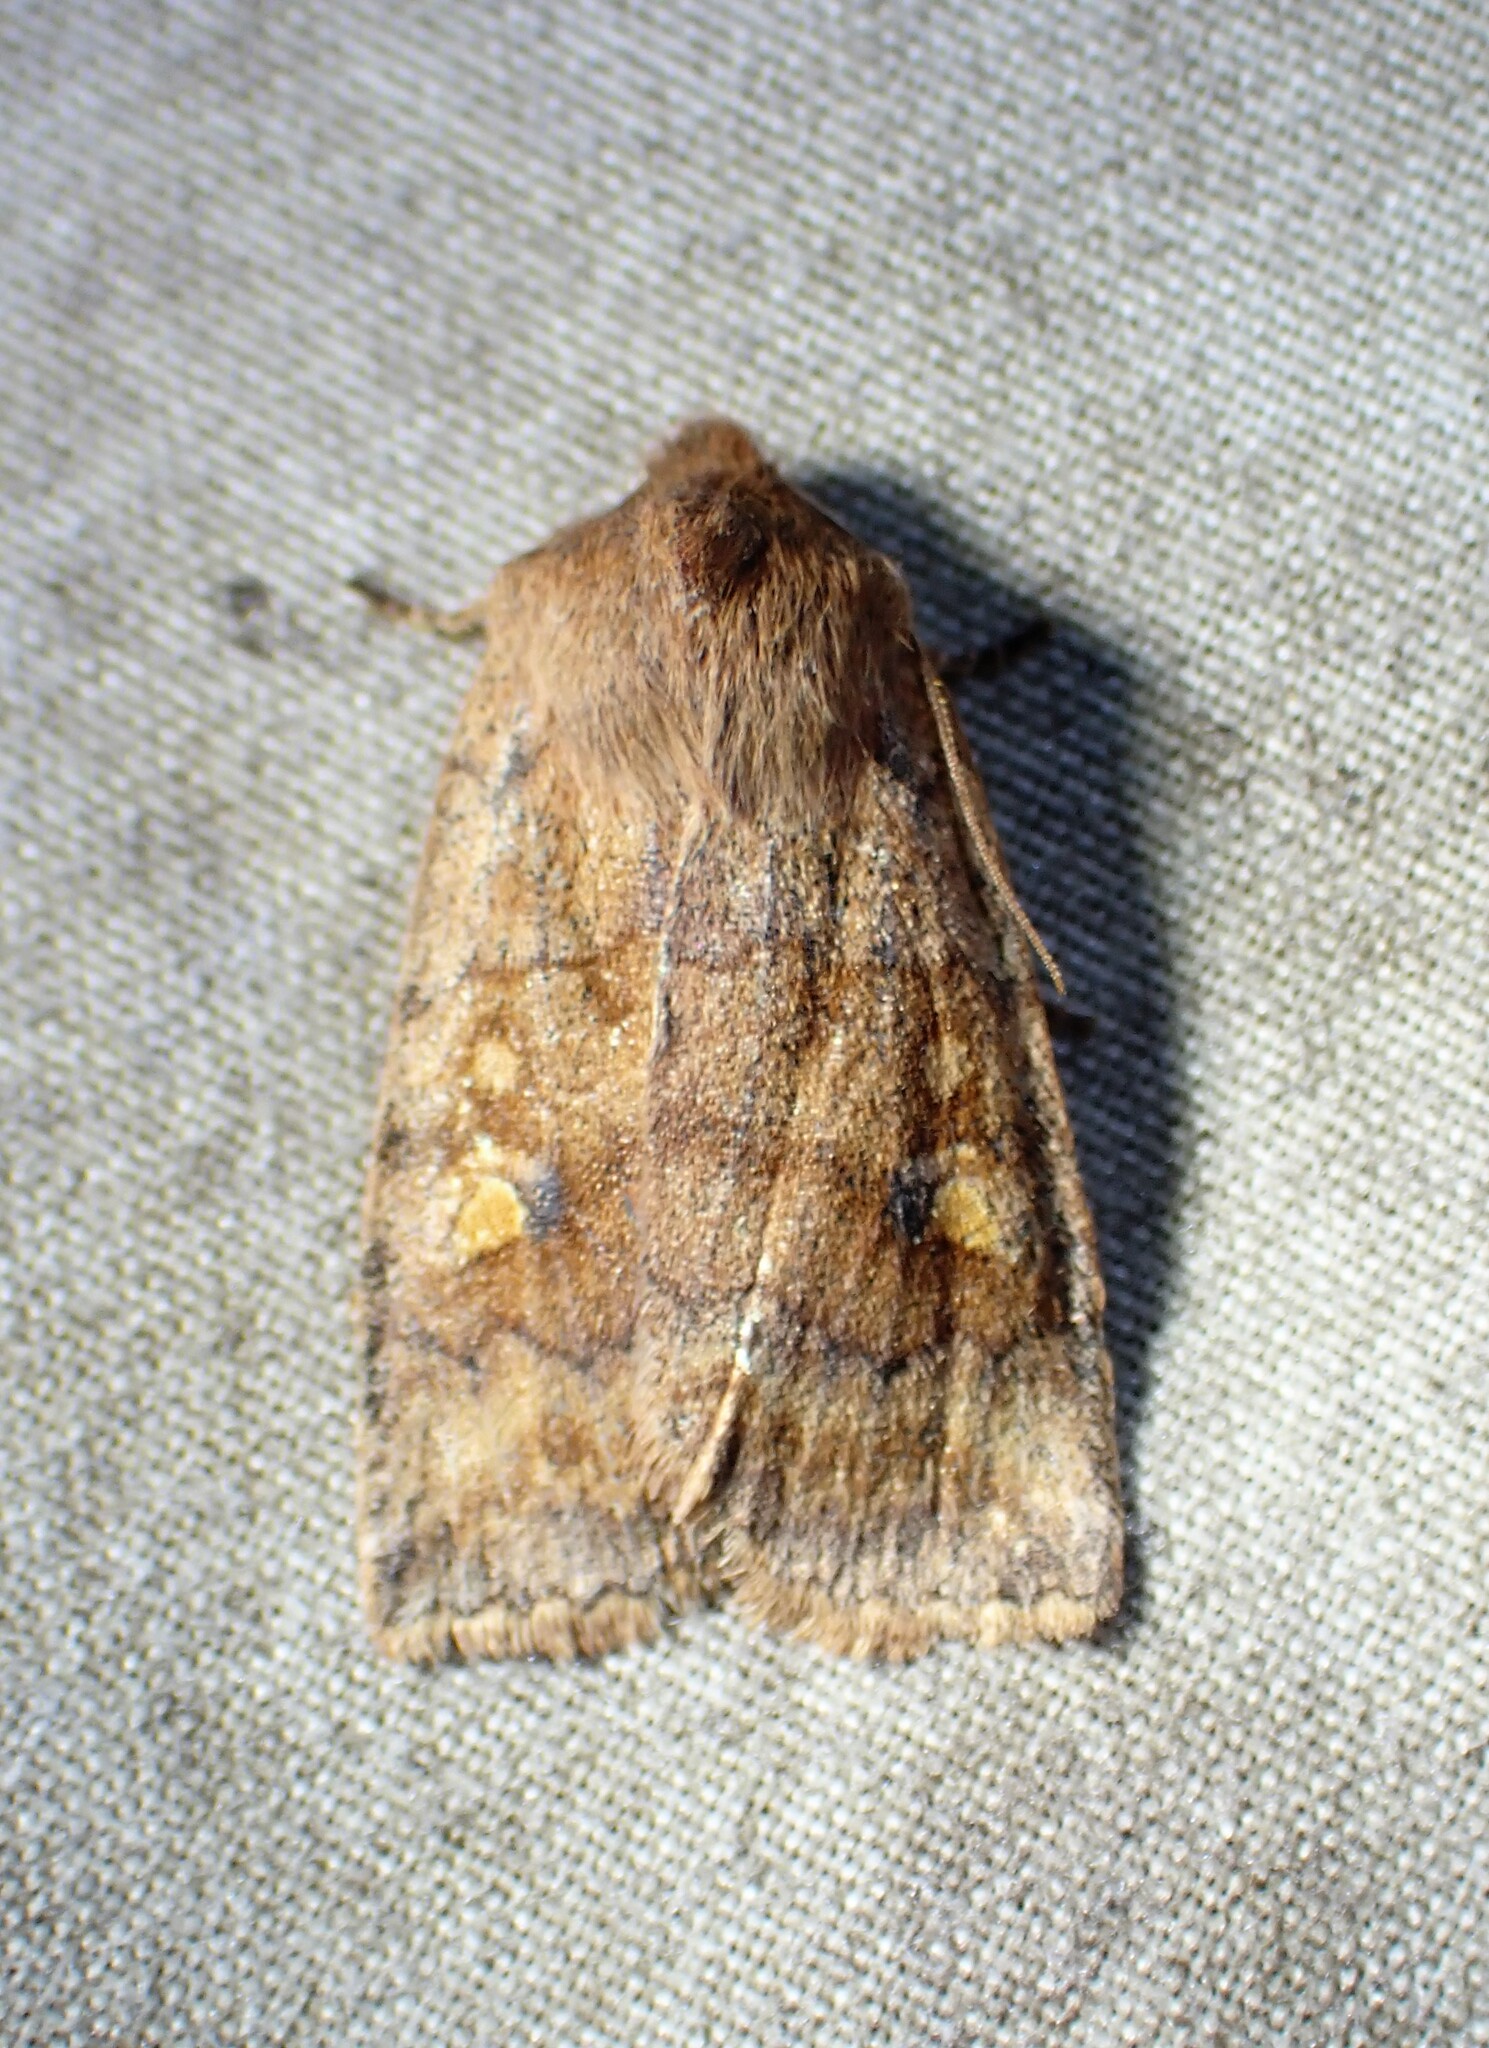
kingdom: Animalia
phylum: Arthropoda
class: Insecta
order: Lepidoptera
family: Noctuidae
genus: Eupsilia
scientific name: Eupsilia tristigmata
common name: Three-spotted sallow
